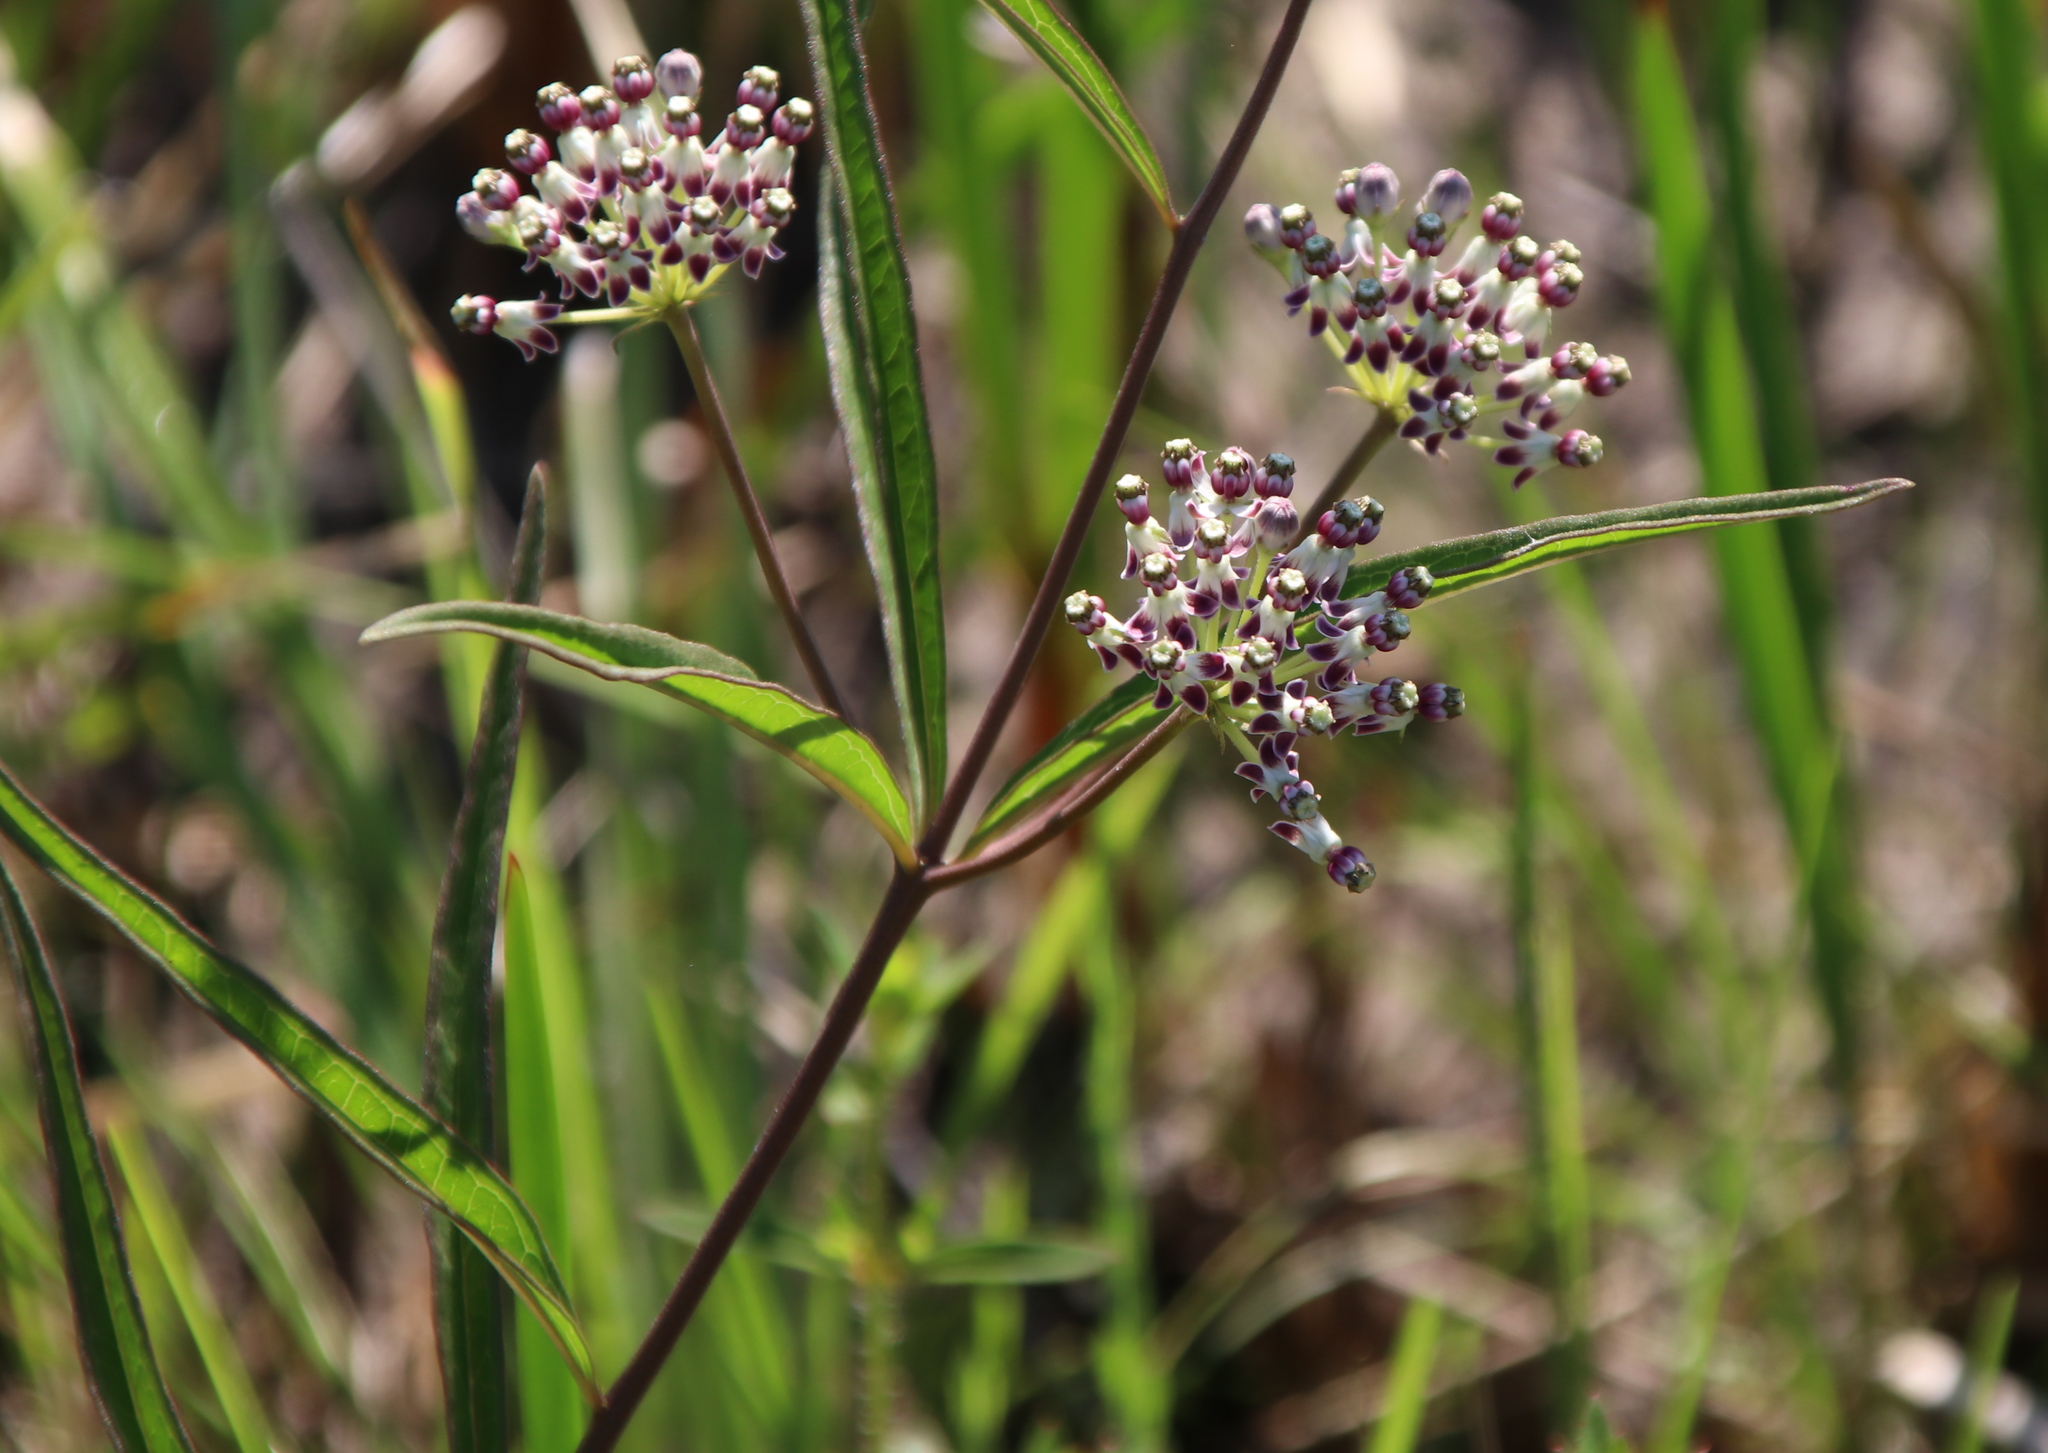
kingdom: Plantae
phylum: Tracheophyta
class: Magnoliopsida
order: Gentianales
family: Apocynaceae
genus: Asclepias
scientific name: Asclepias longifolia
